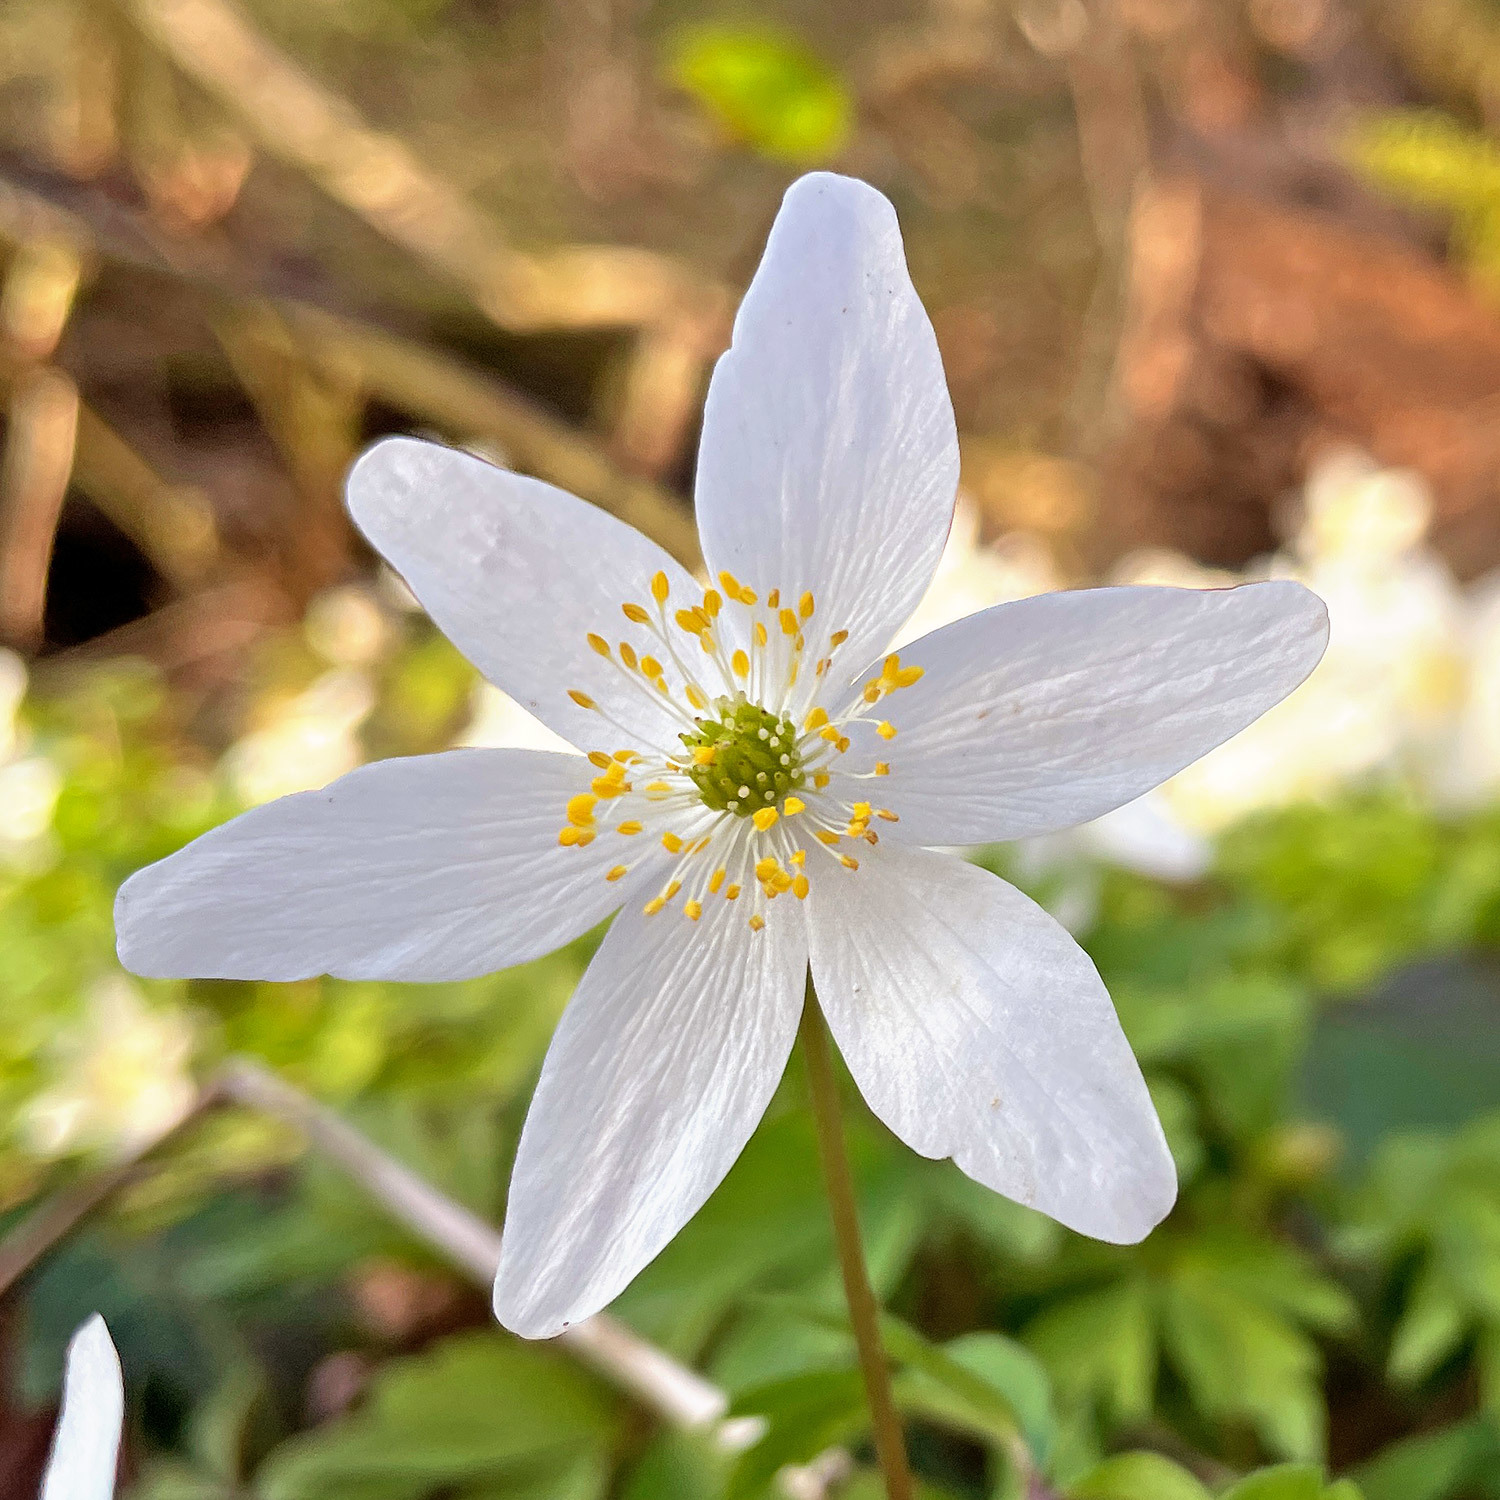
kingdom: Plantae
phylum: Tracheophyta
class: Magnoliopsida
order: Ranunculales
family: Ranunculaceae
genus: Anemone
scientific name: Anemone nemorosa
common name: Wood anemone
